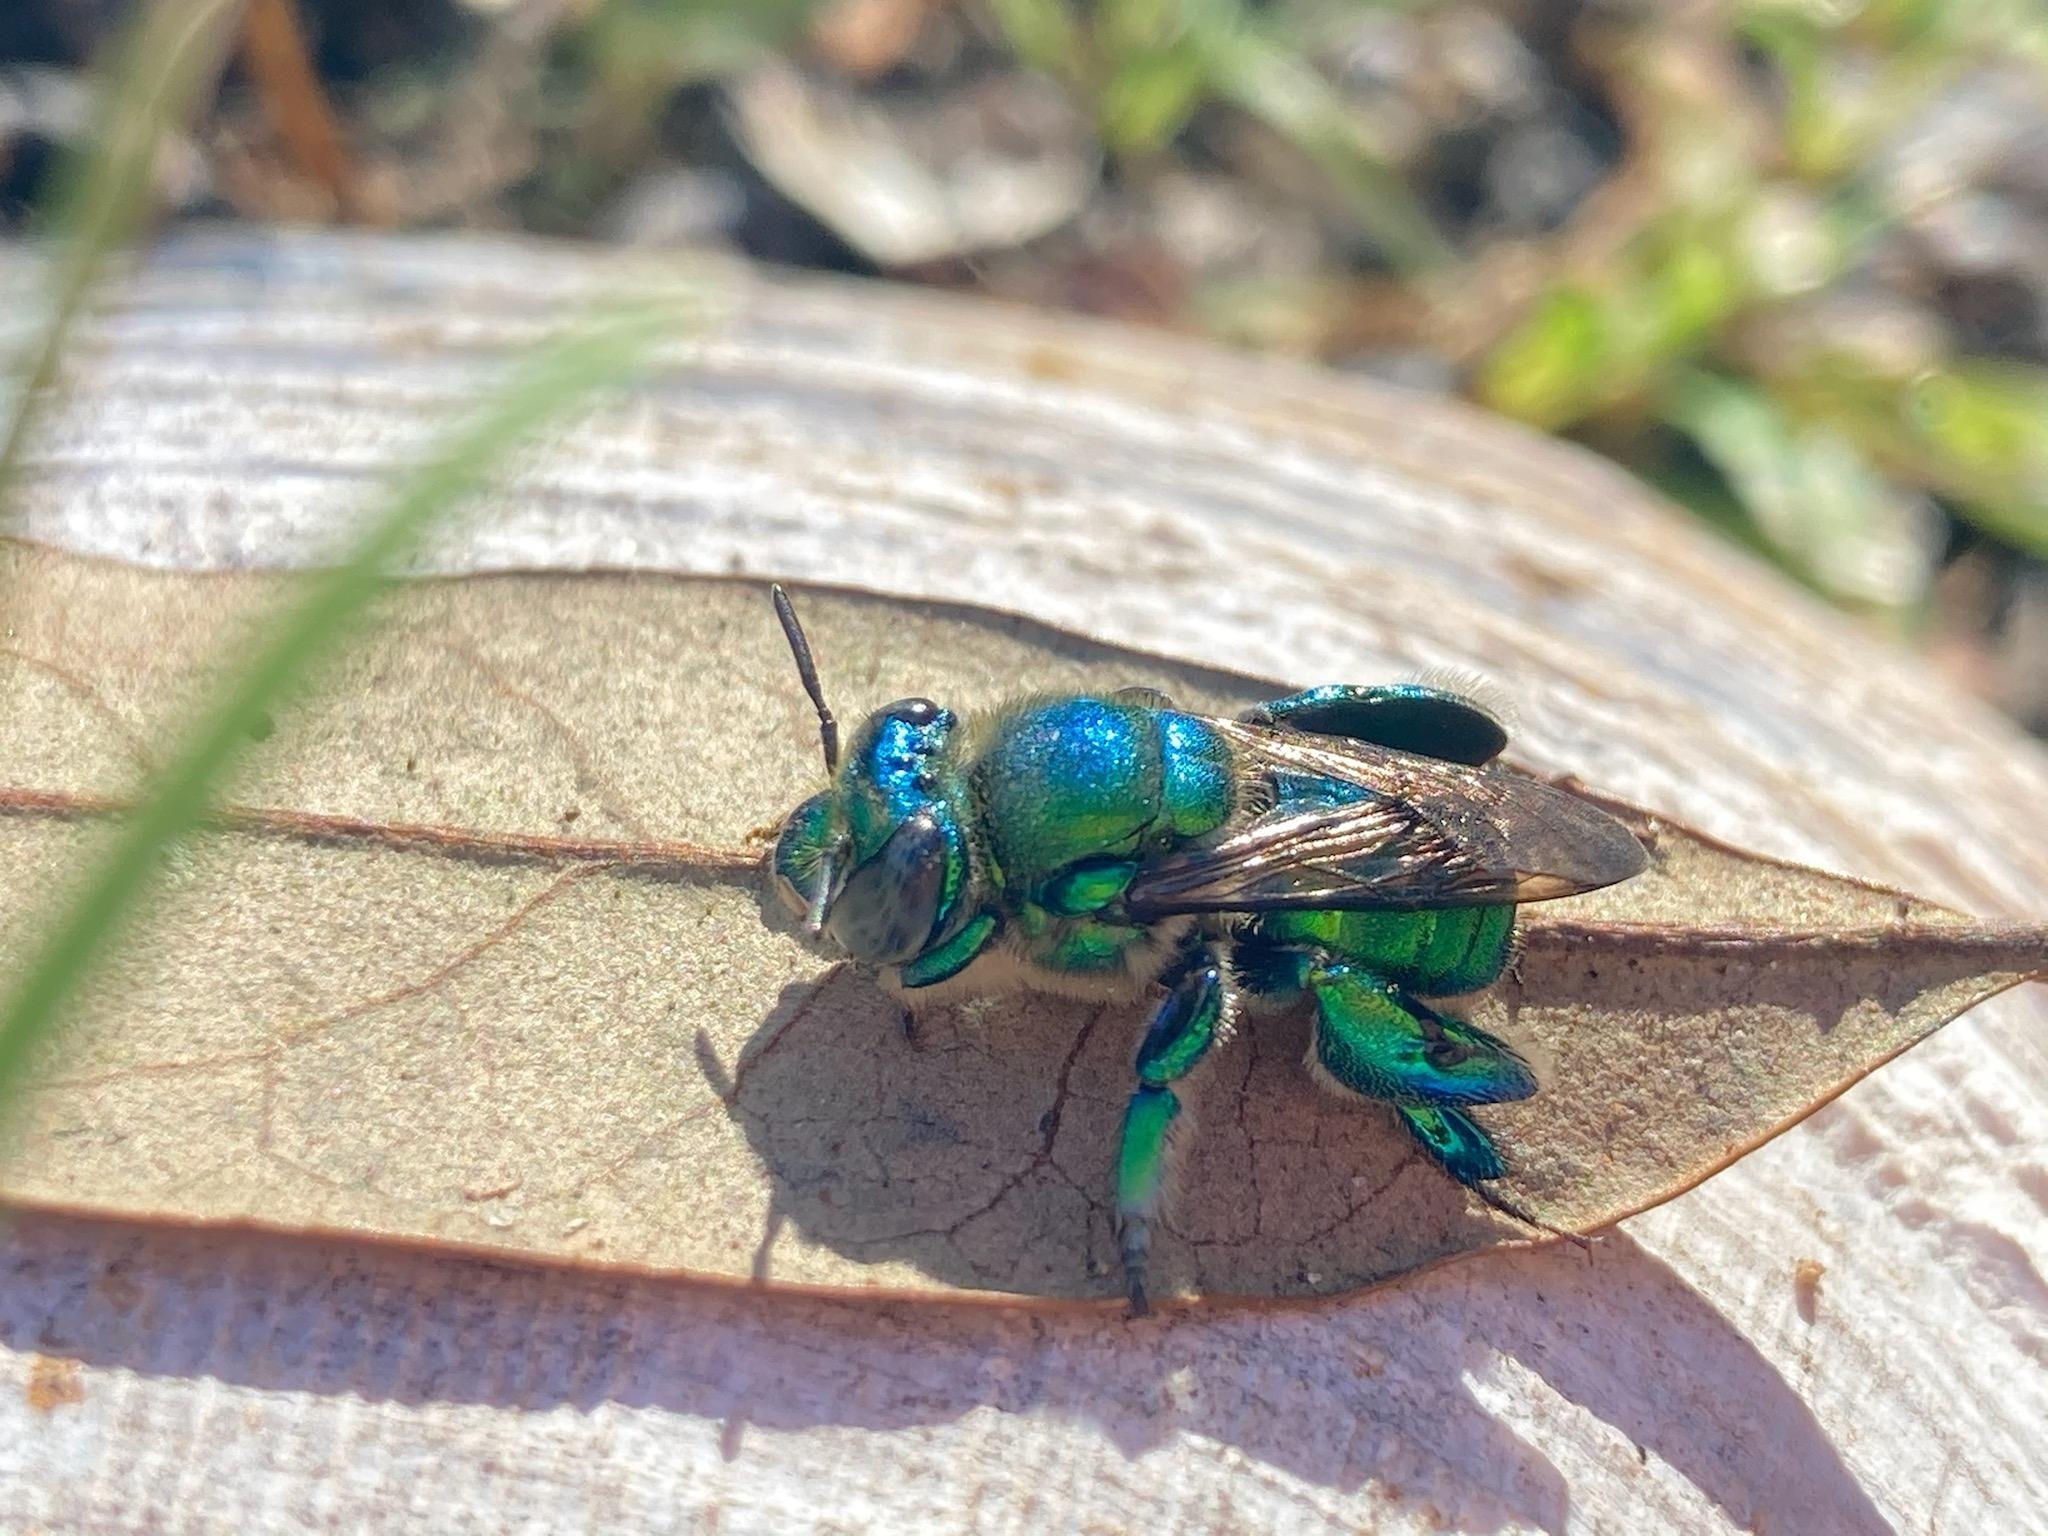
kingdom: Animalia
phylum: Arthropoda
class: Insecta
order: Hymenoptera
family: Apidae
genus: Euglossa
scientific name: Euglossa dilemma
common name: Green orchid bee
